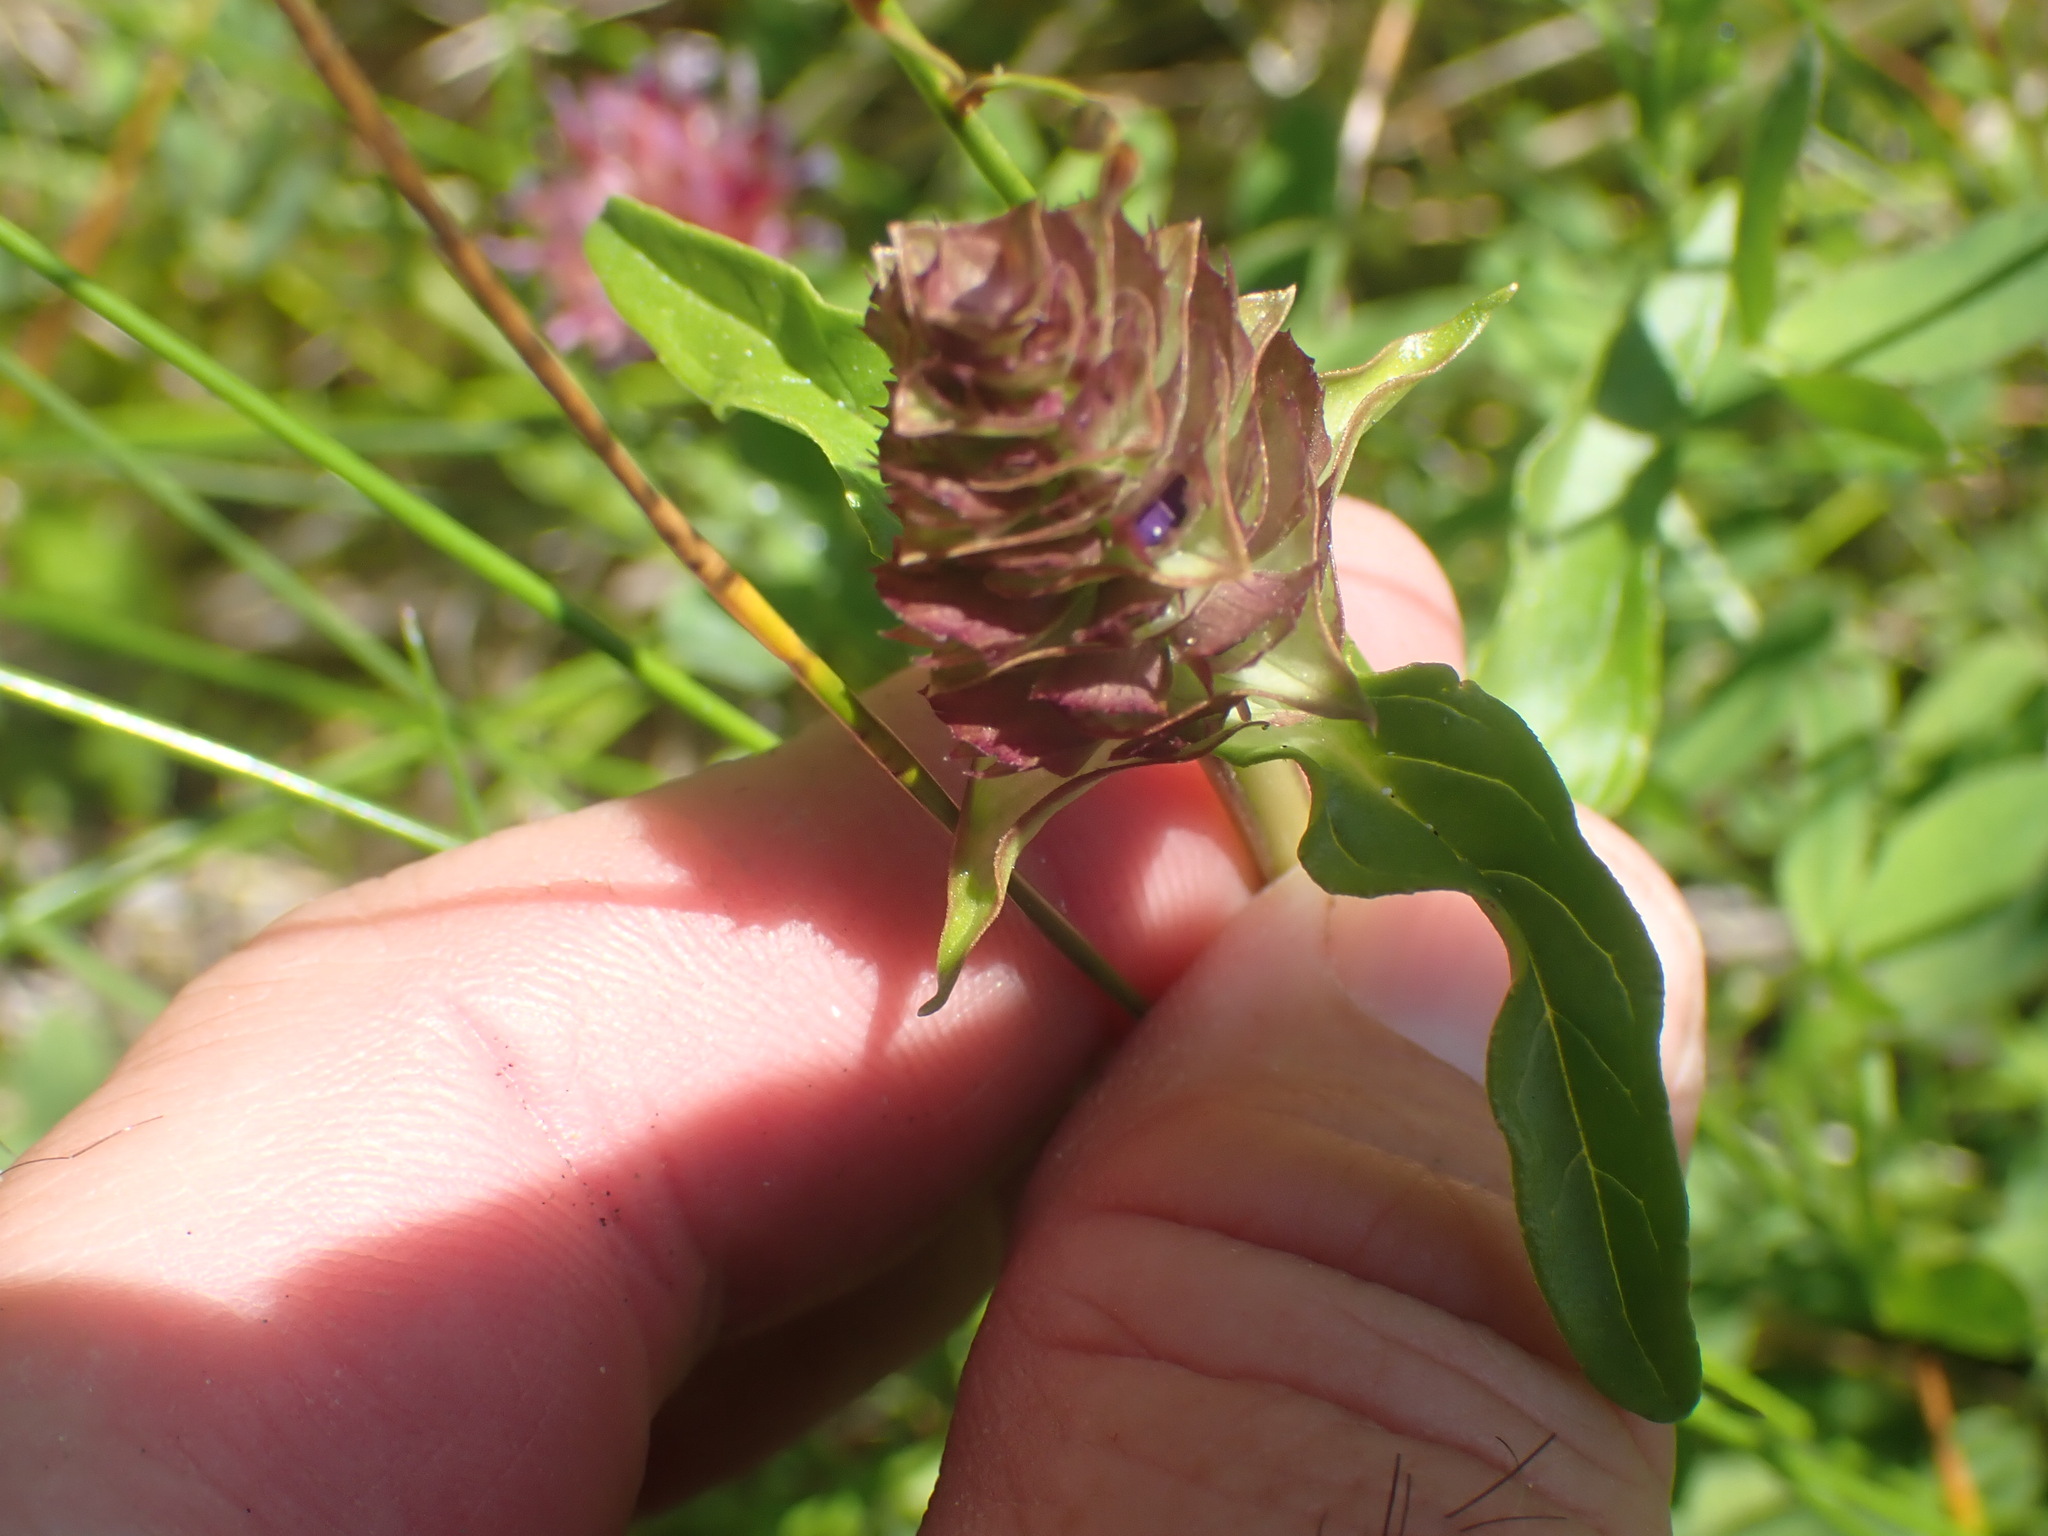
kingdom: Plantae
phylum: Tracheophyta
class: Magnoliopsida
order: Lamiales
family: Lamiaceae
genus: Prunella
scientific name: Prunella vulgaris
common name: Heal-all
